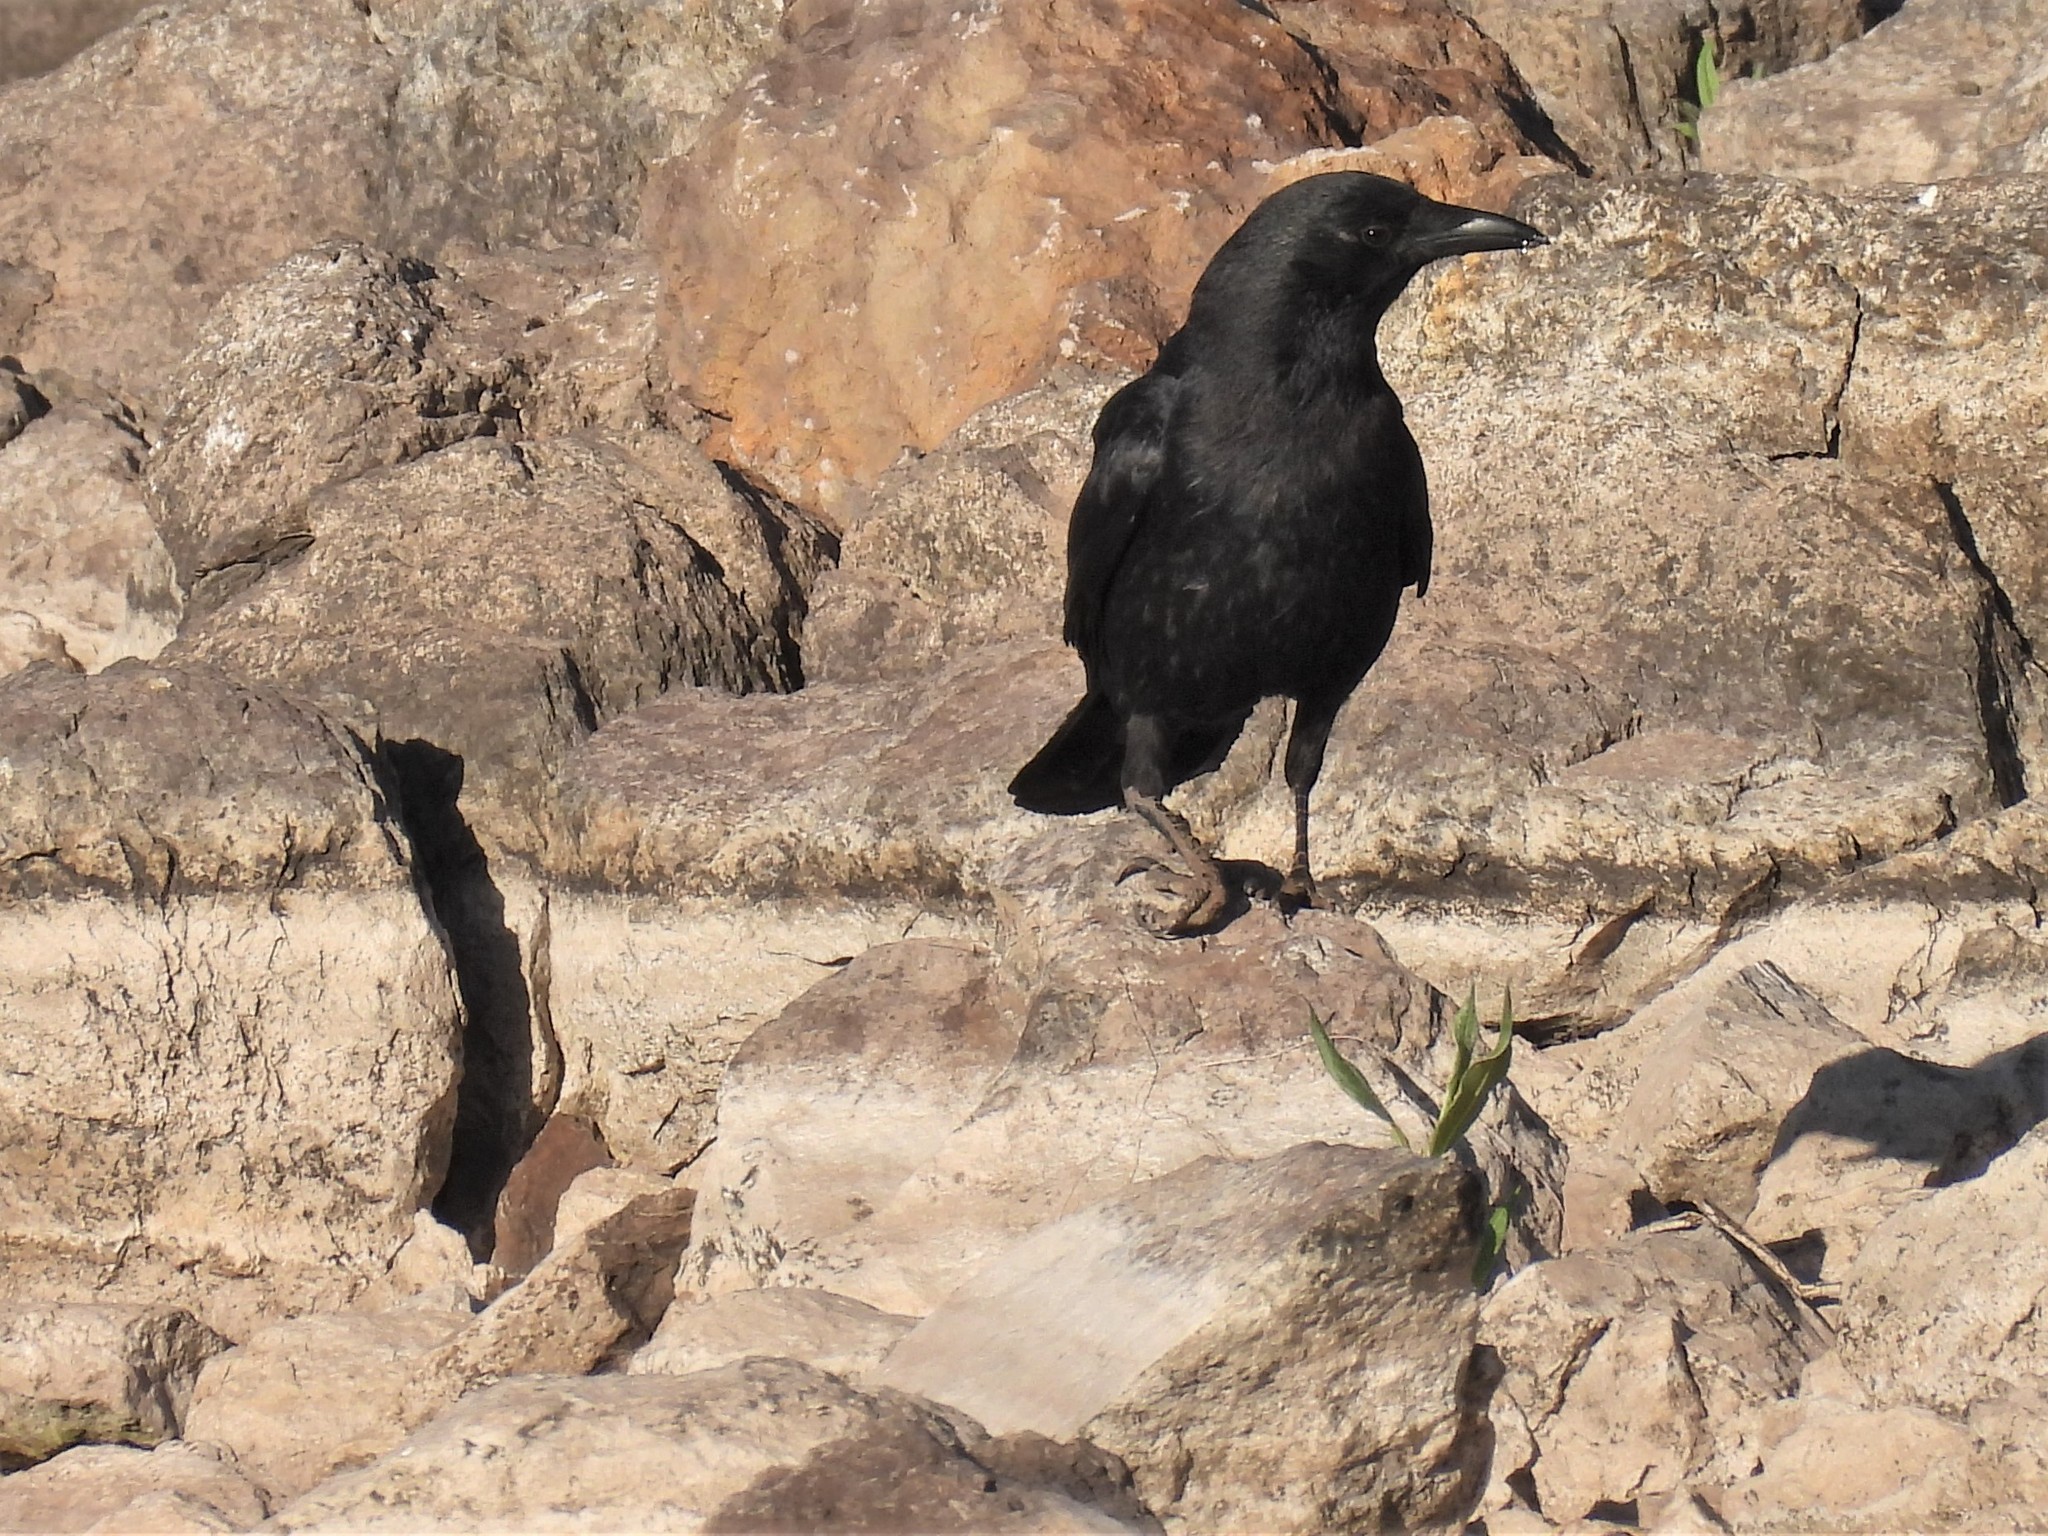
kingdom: Animalia
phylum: Chordata
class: Aves
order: Passeriformes
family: Corvidae
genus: Corvus
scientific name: Corvus brachyrhynchos
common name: American crow
